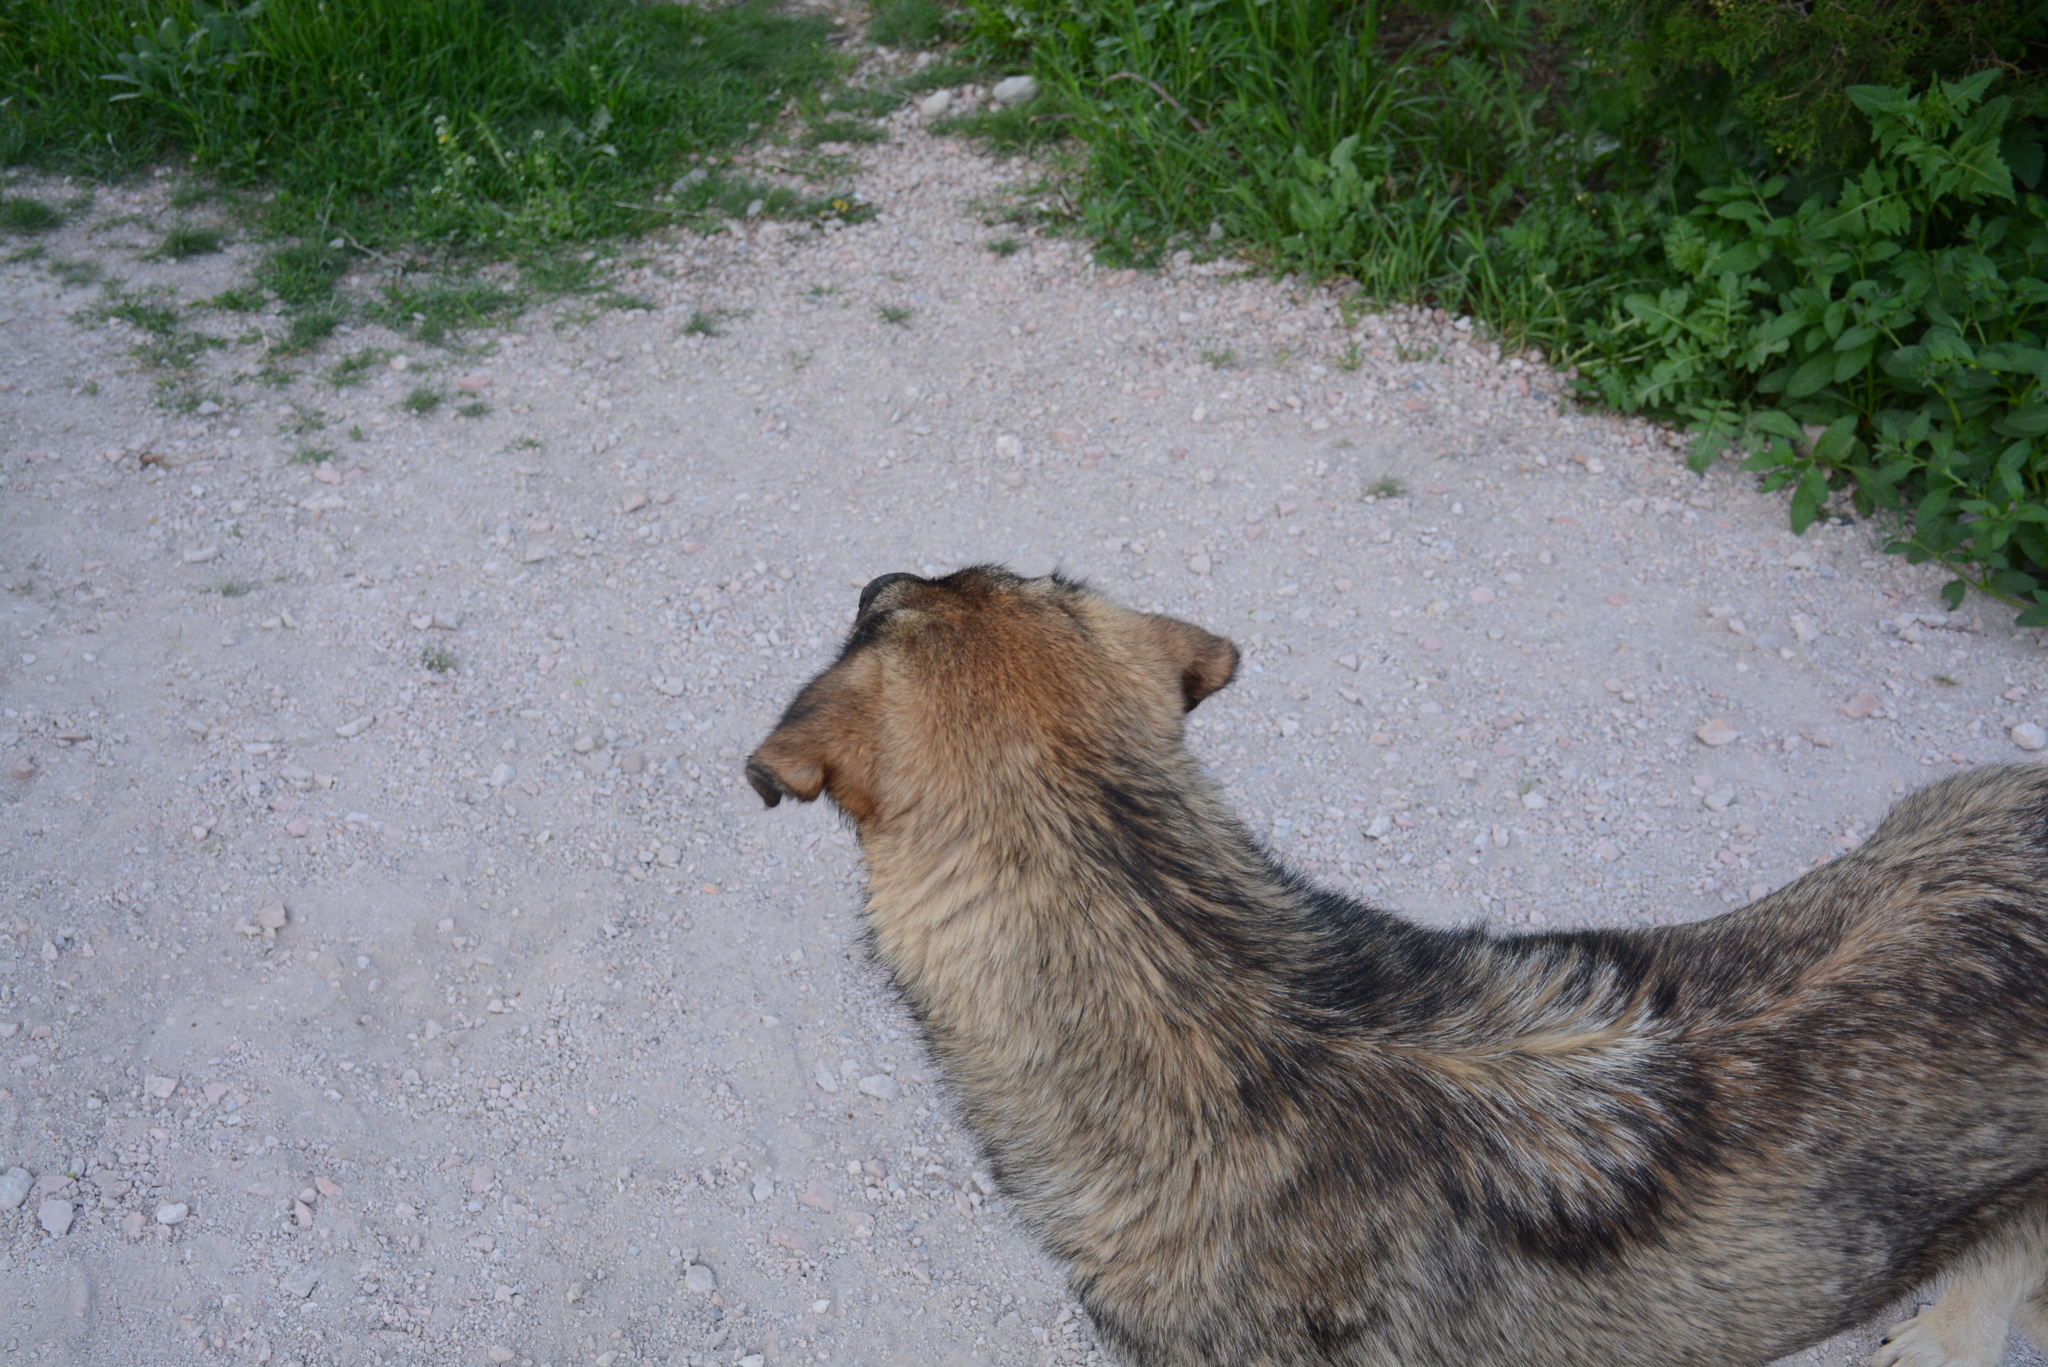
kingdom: Animalia
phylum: Chordata
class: Mammalia
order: Carnivora
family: Canidae
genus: Canis
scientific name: Canis lupus
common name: Gray wolf
